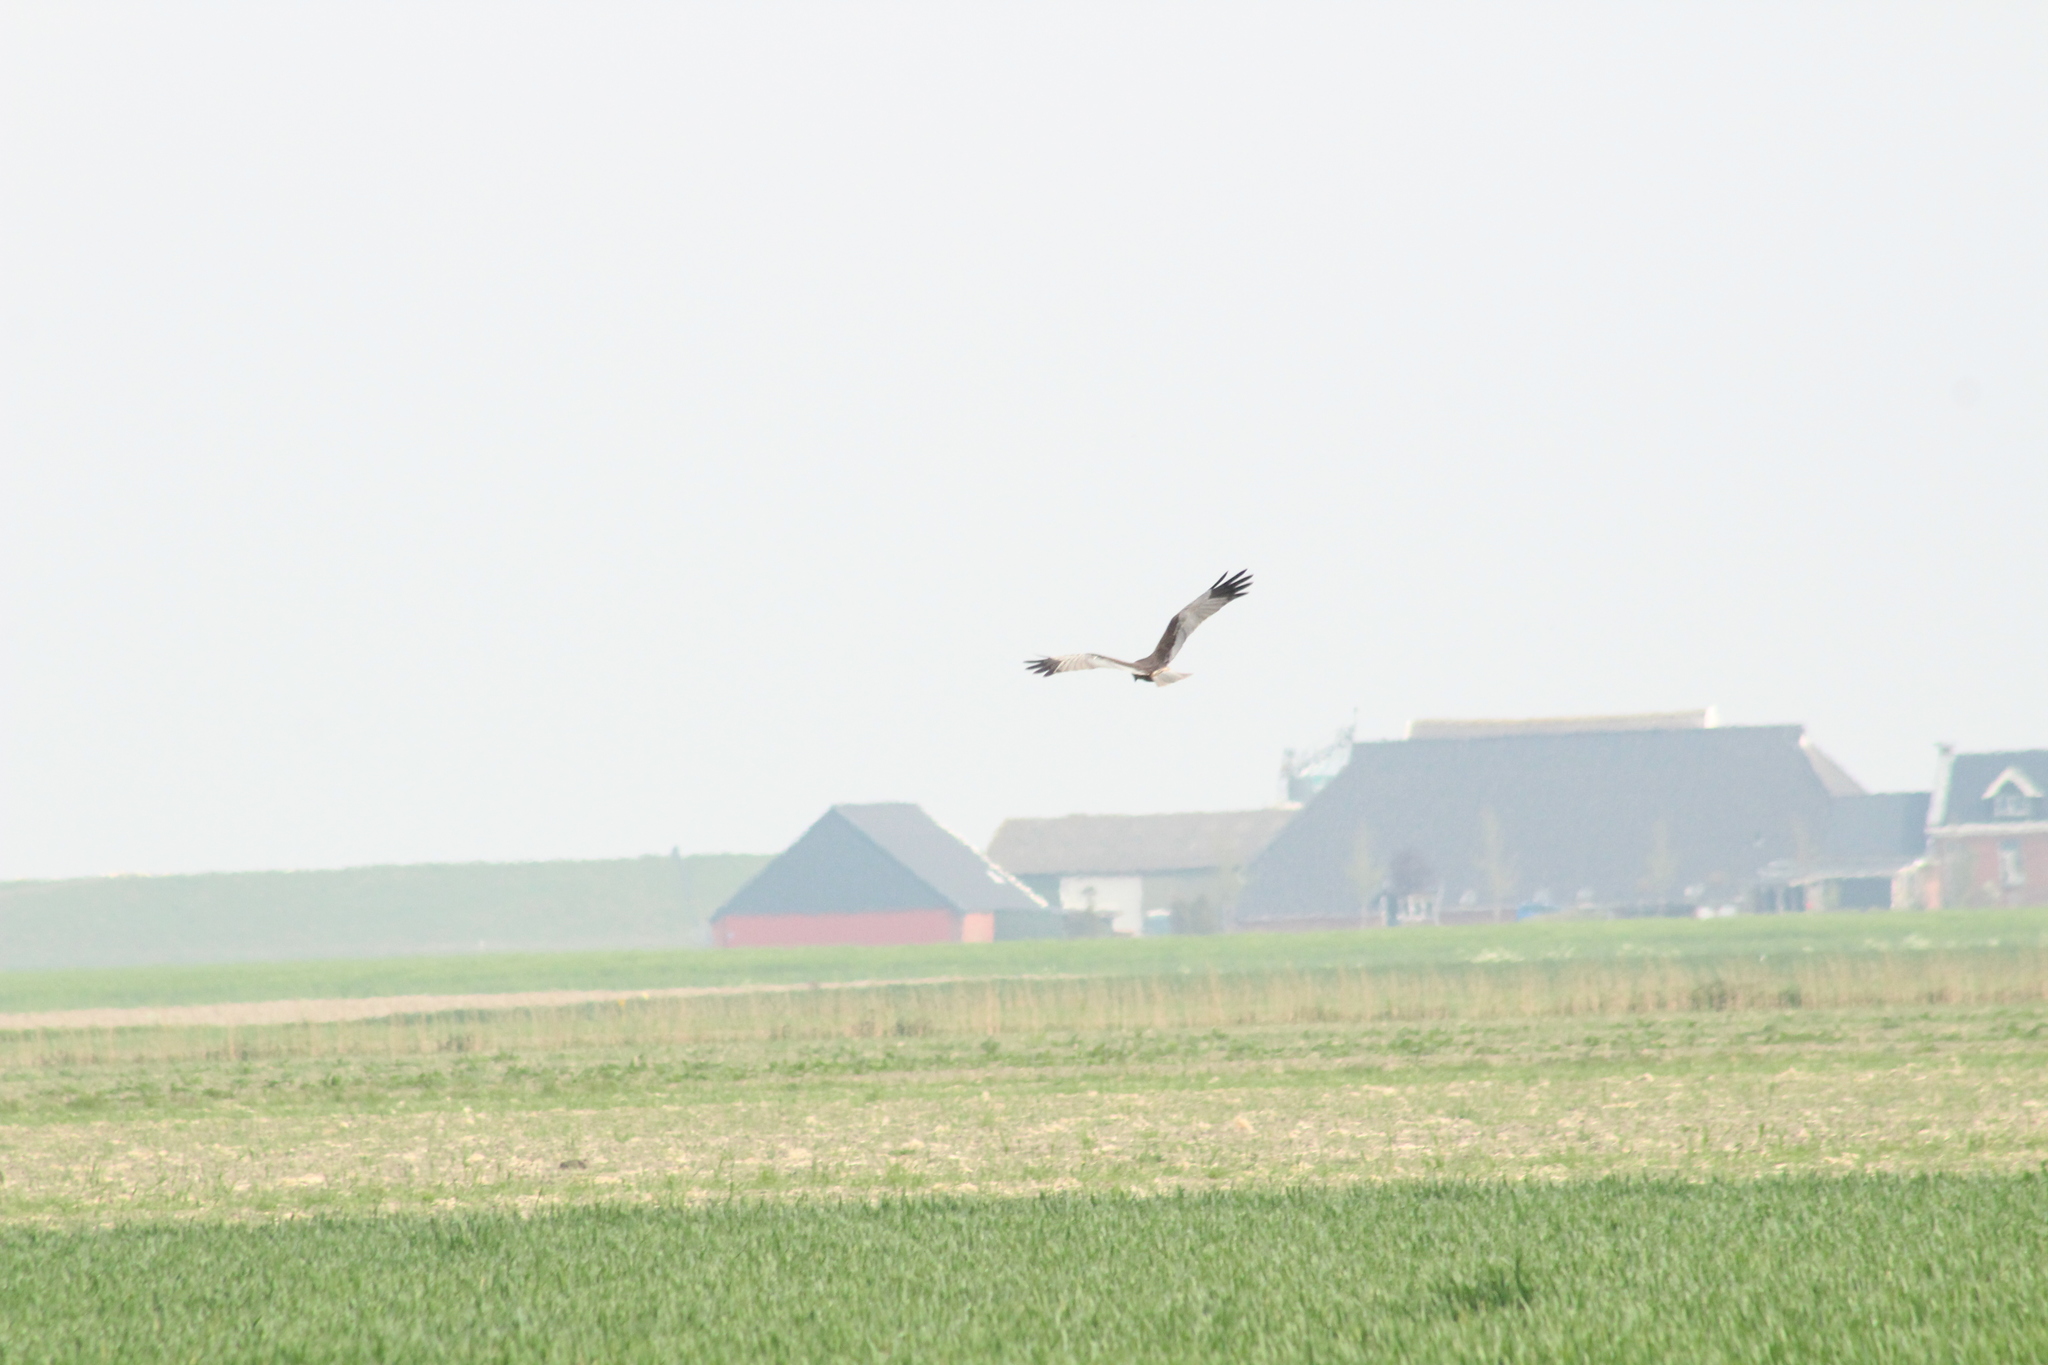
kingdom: Animalia
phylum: Chordata
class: Aves
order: Accipitriformes
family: Accipitridae
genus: Circus
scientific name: Circus aeruginosus
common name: Western marsh harrier
